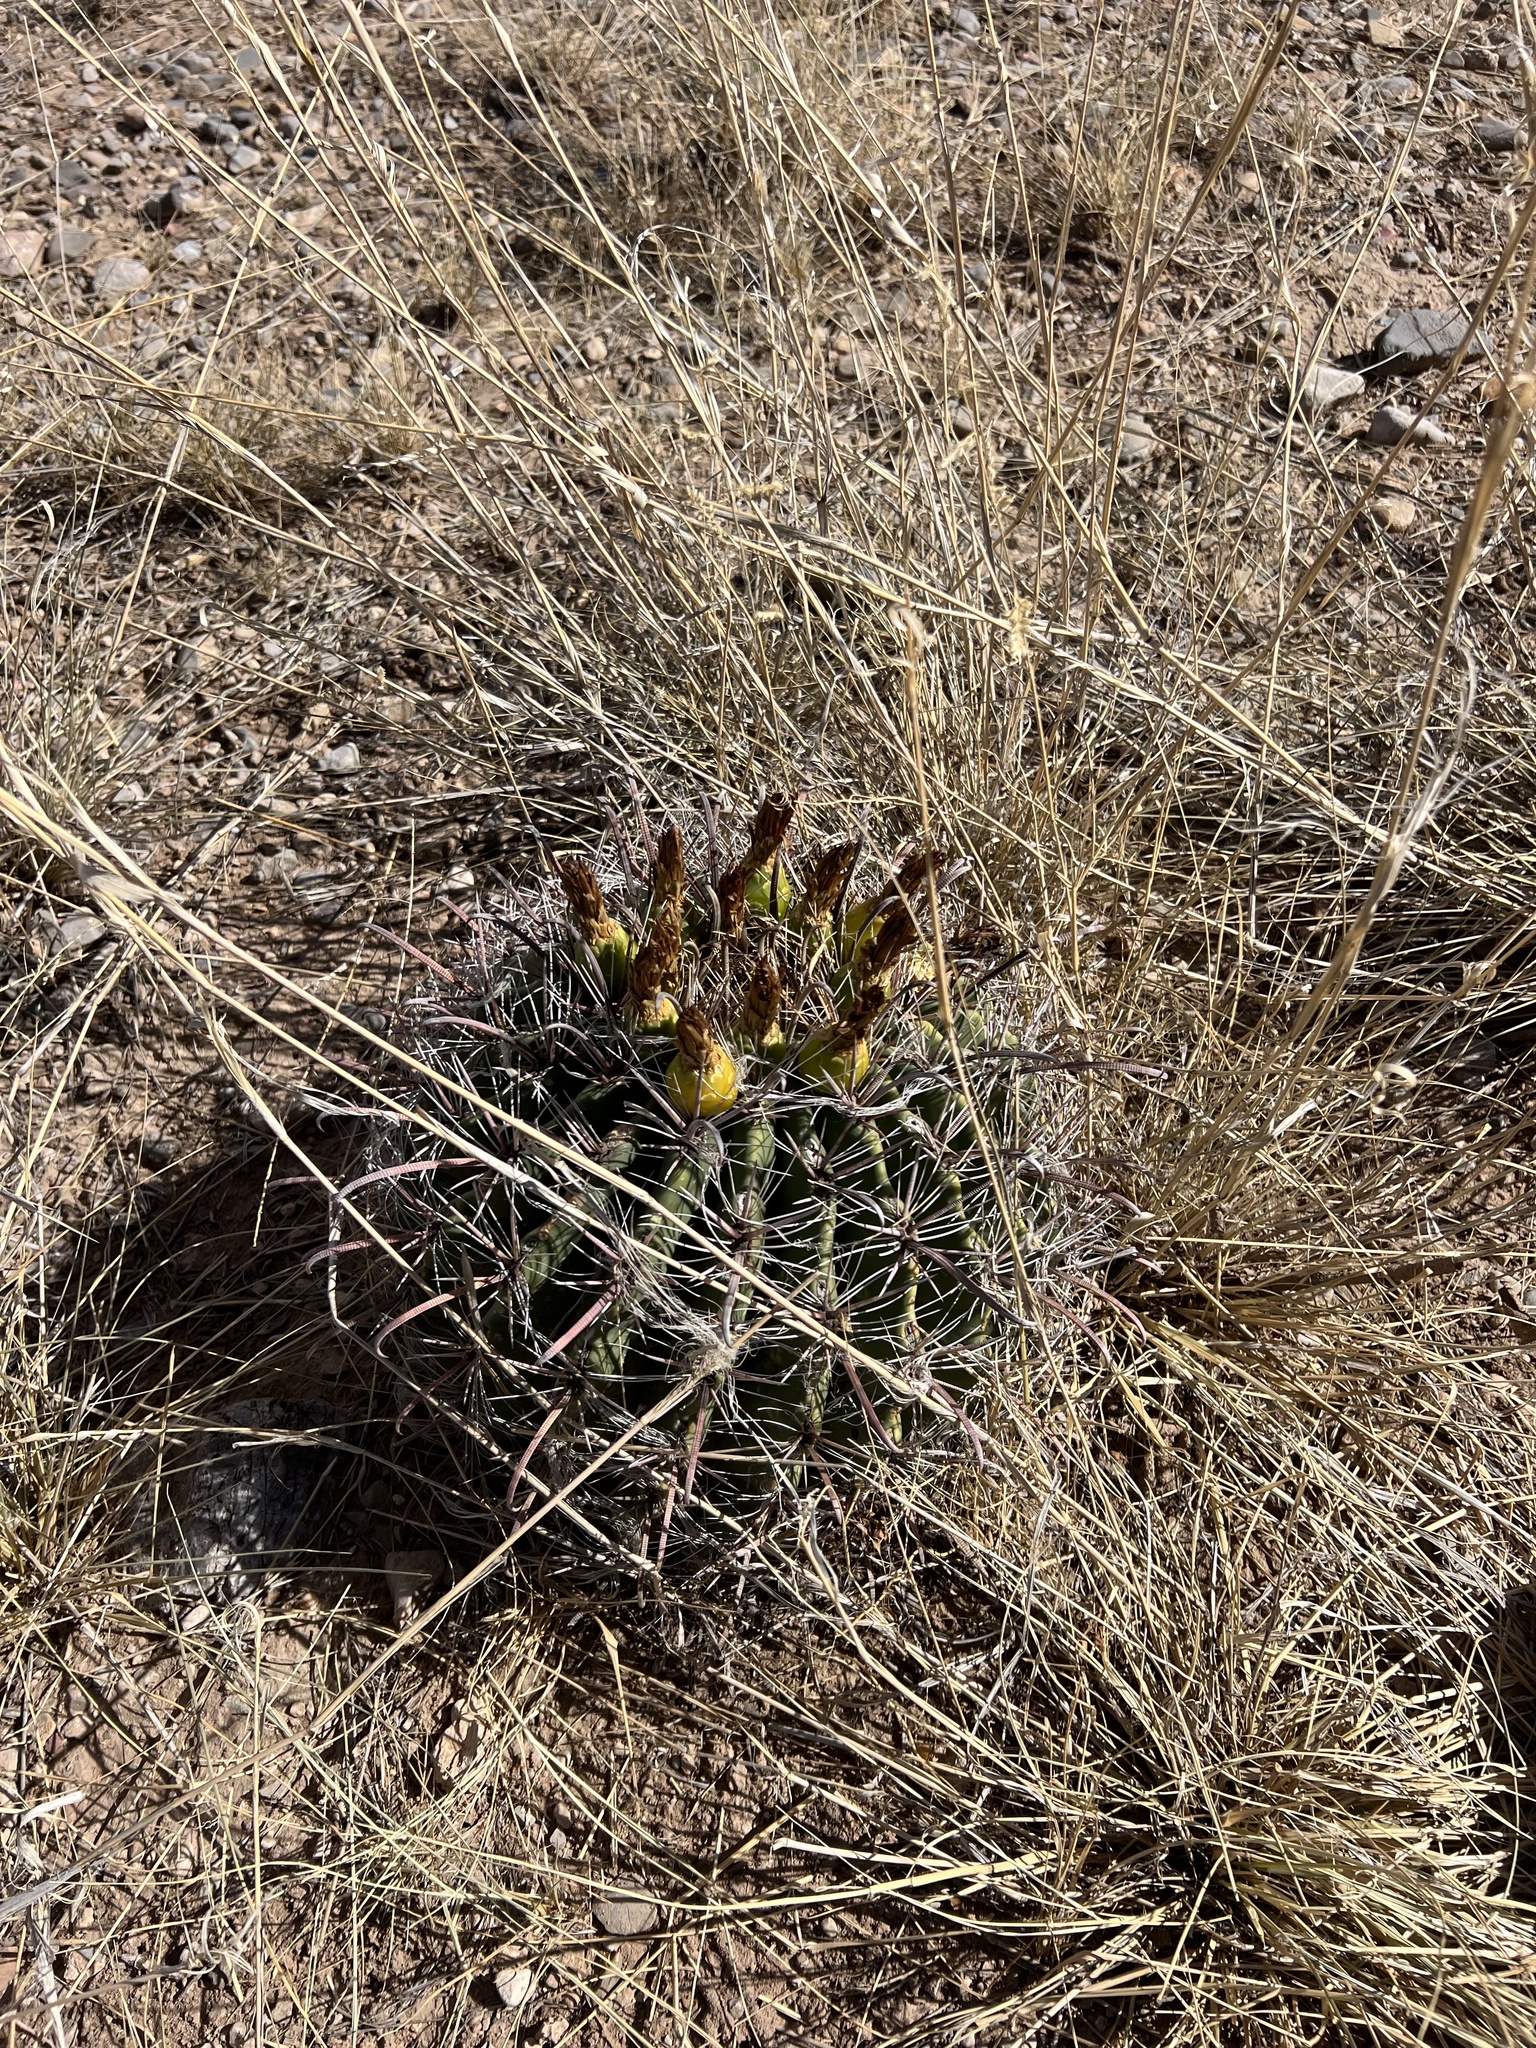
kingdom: Plantae
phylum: Tracheophyta
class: Magnoliopsida
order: Caryophyllales
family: Cactaceae
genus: Ferocactus
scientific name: Ferocactus wislizeni
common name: Candy barrel cactus
